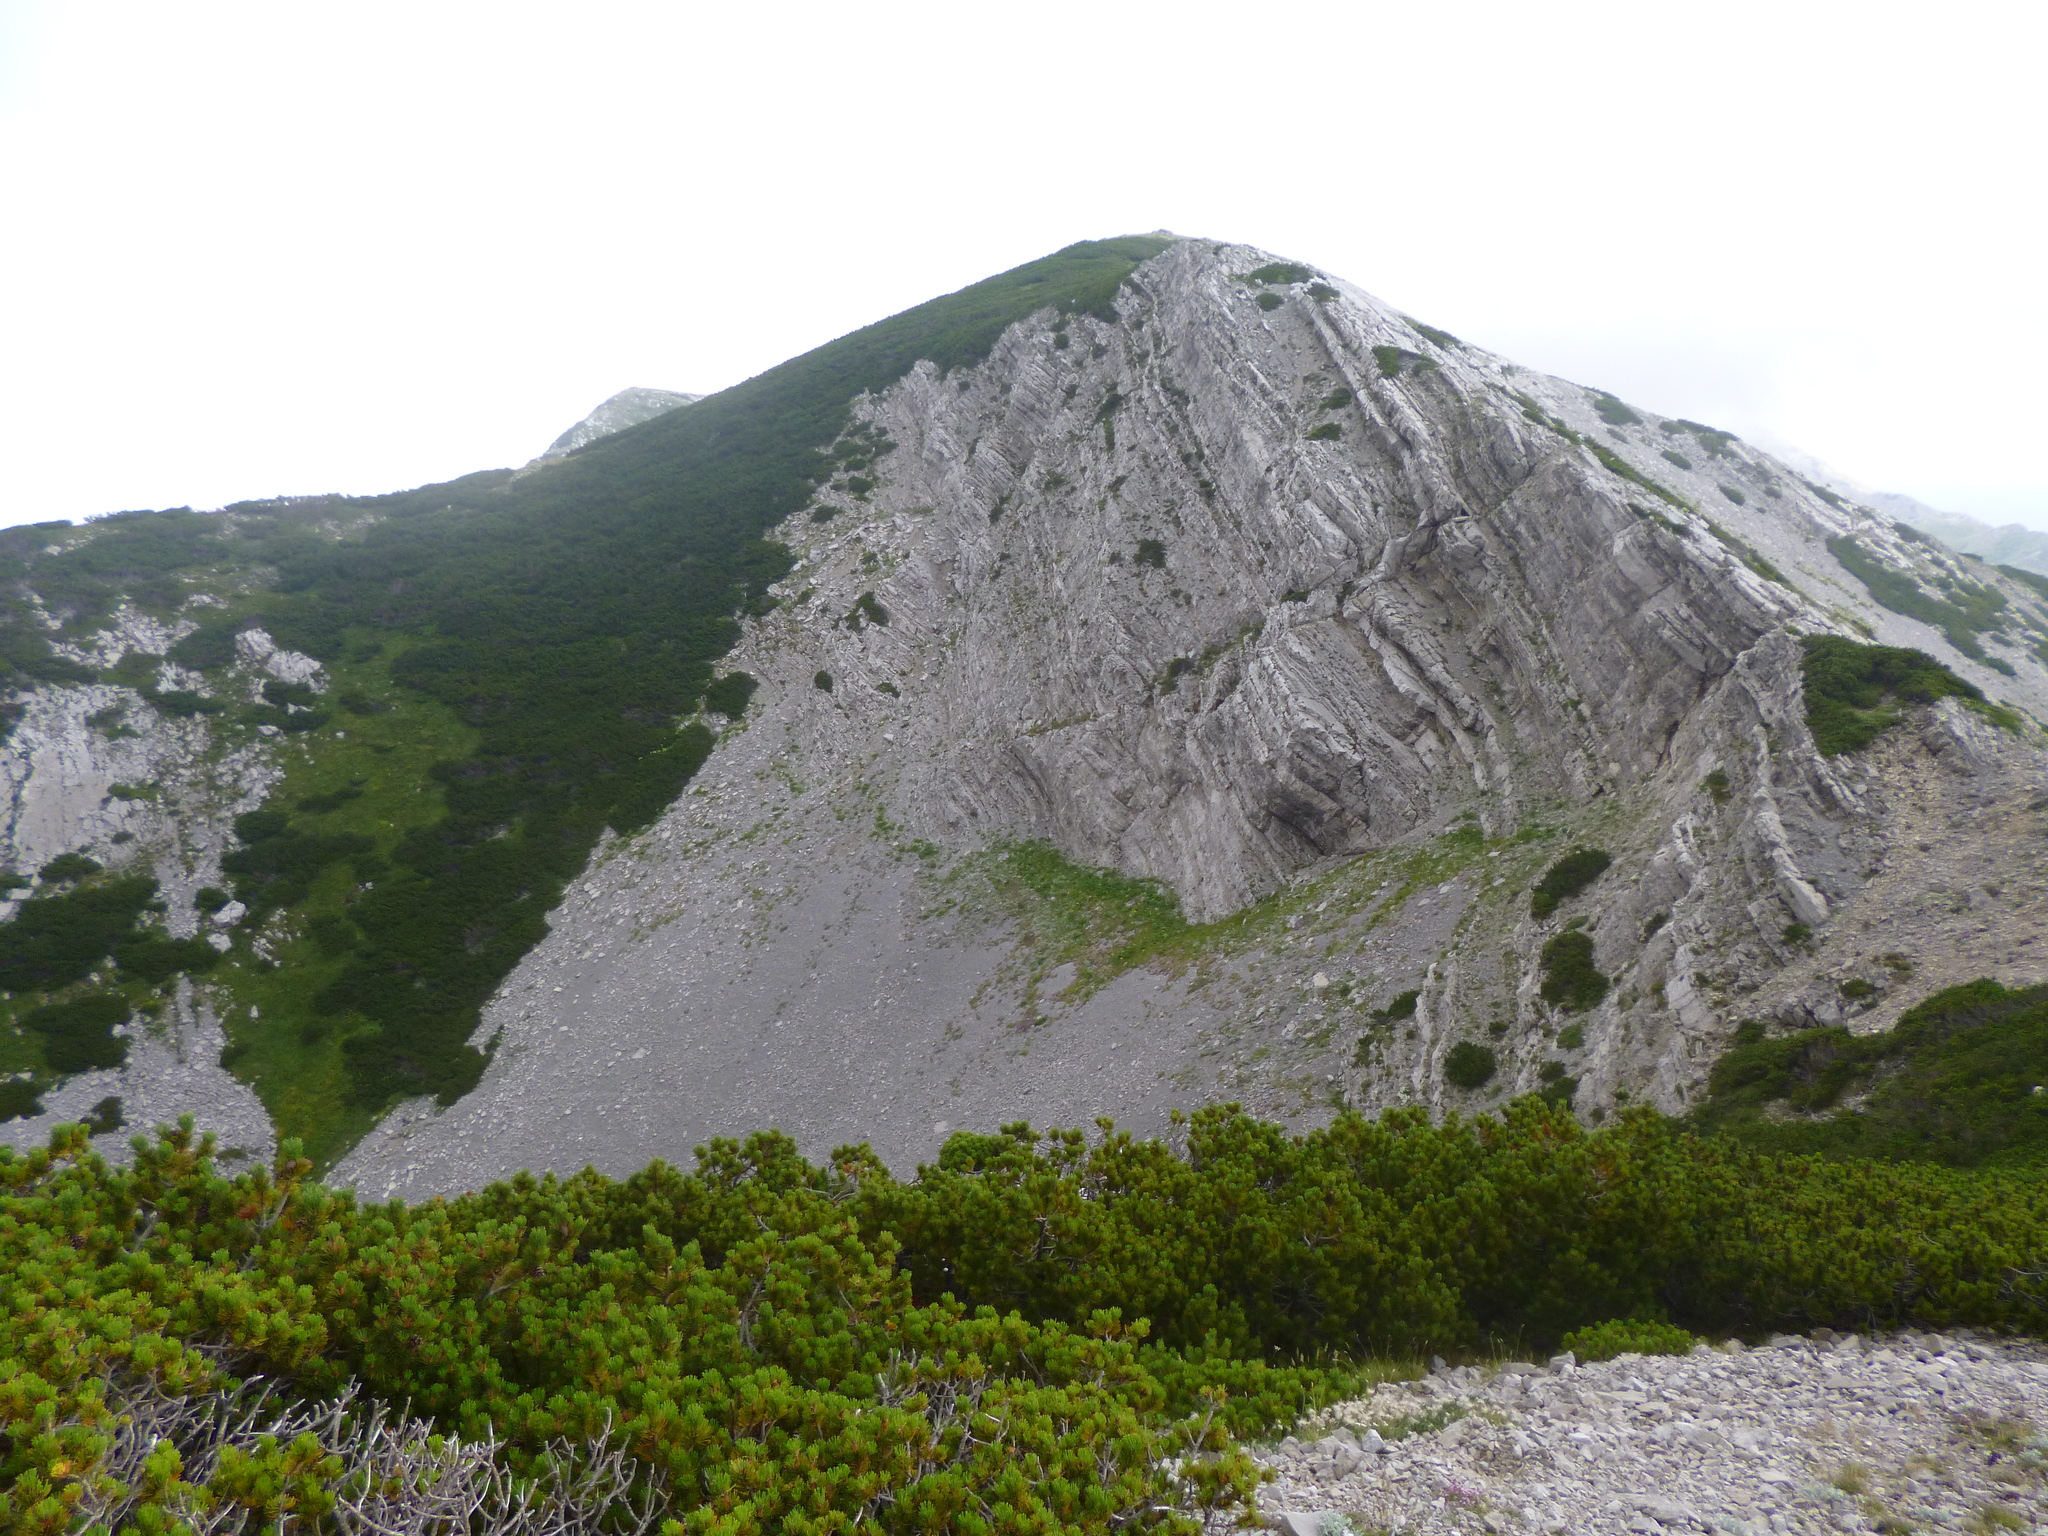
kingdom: Plantae
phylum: Tracheophyta
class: Pinopsida
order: Pinales
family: Pinaceae
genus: Pinus
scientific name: Pinus mugo
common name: Mugo pine
